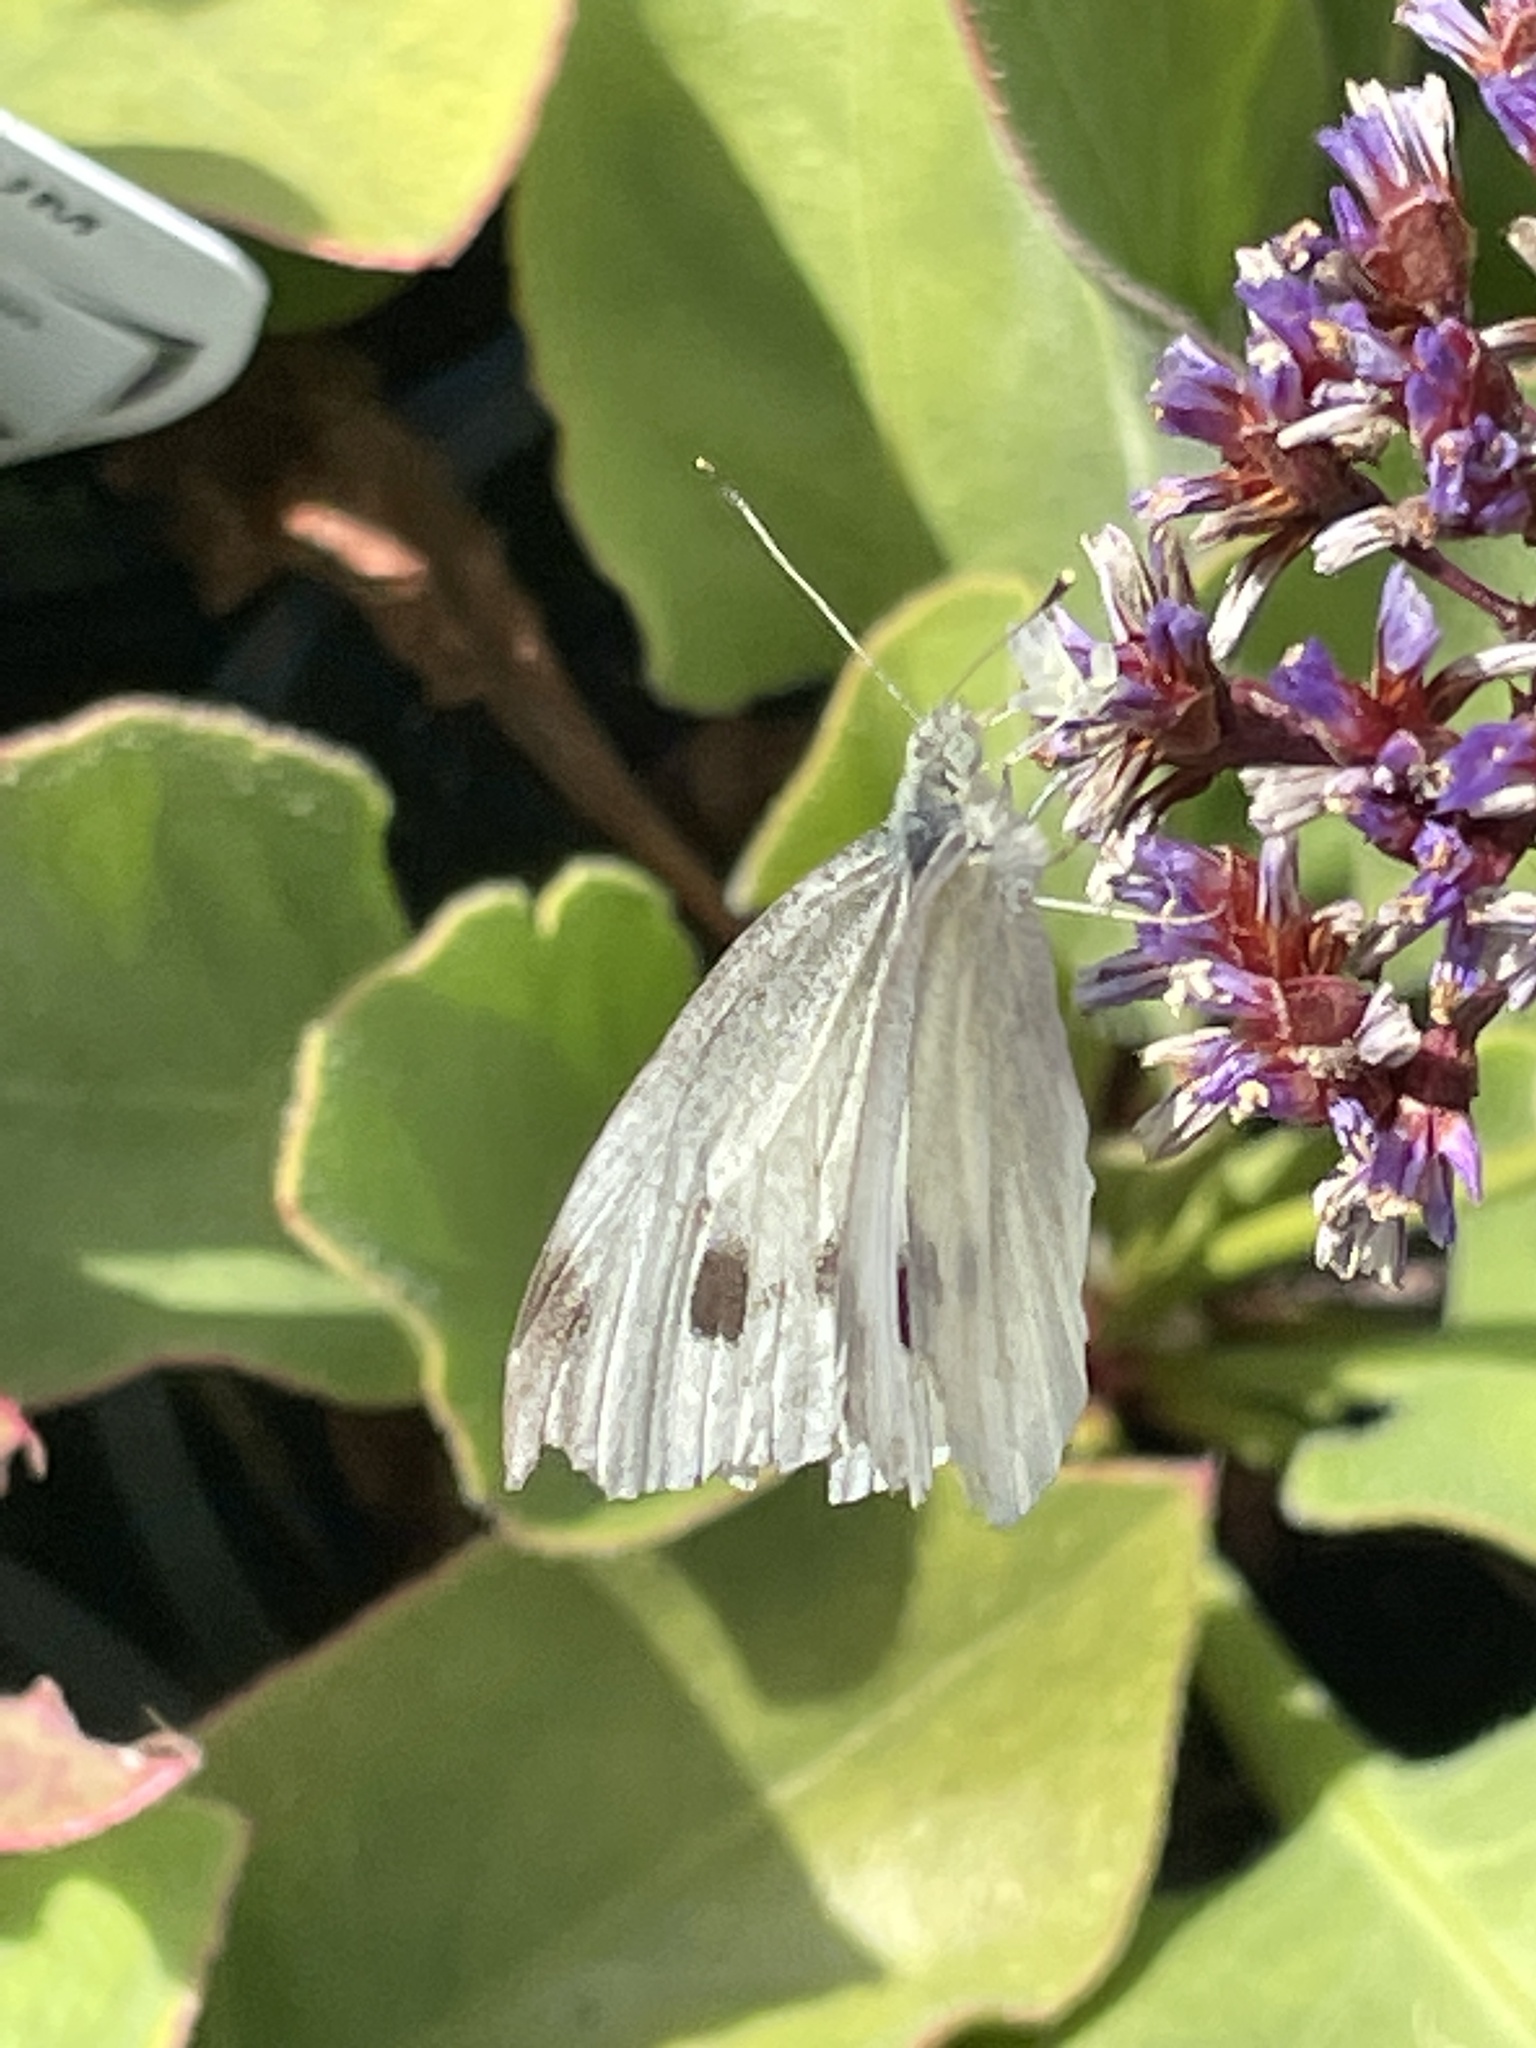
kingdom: Animalia
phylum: Arthropoda
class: Insecta
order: Lepidoptera
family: Pieridae
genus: Pieris
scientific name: Pieris rapae
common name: Small white
